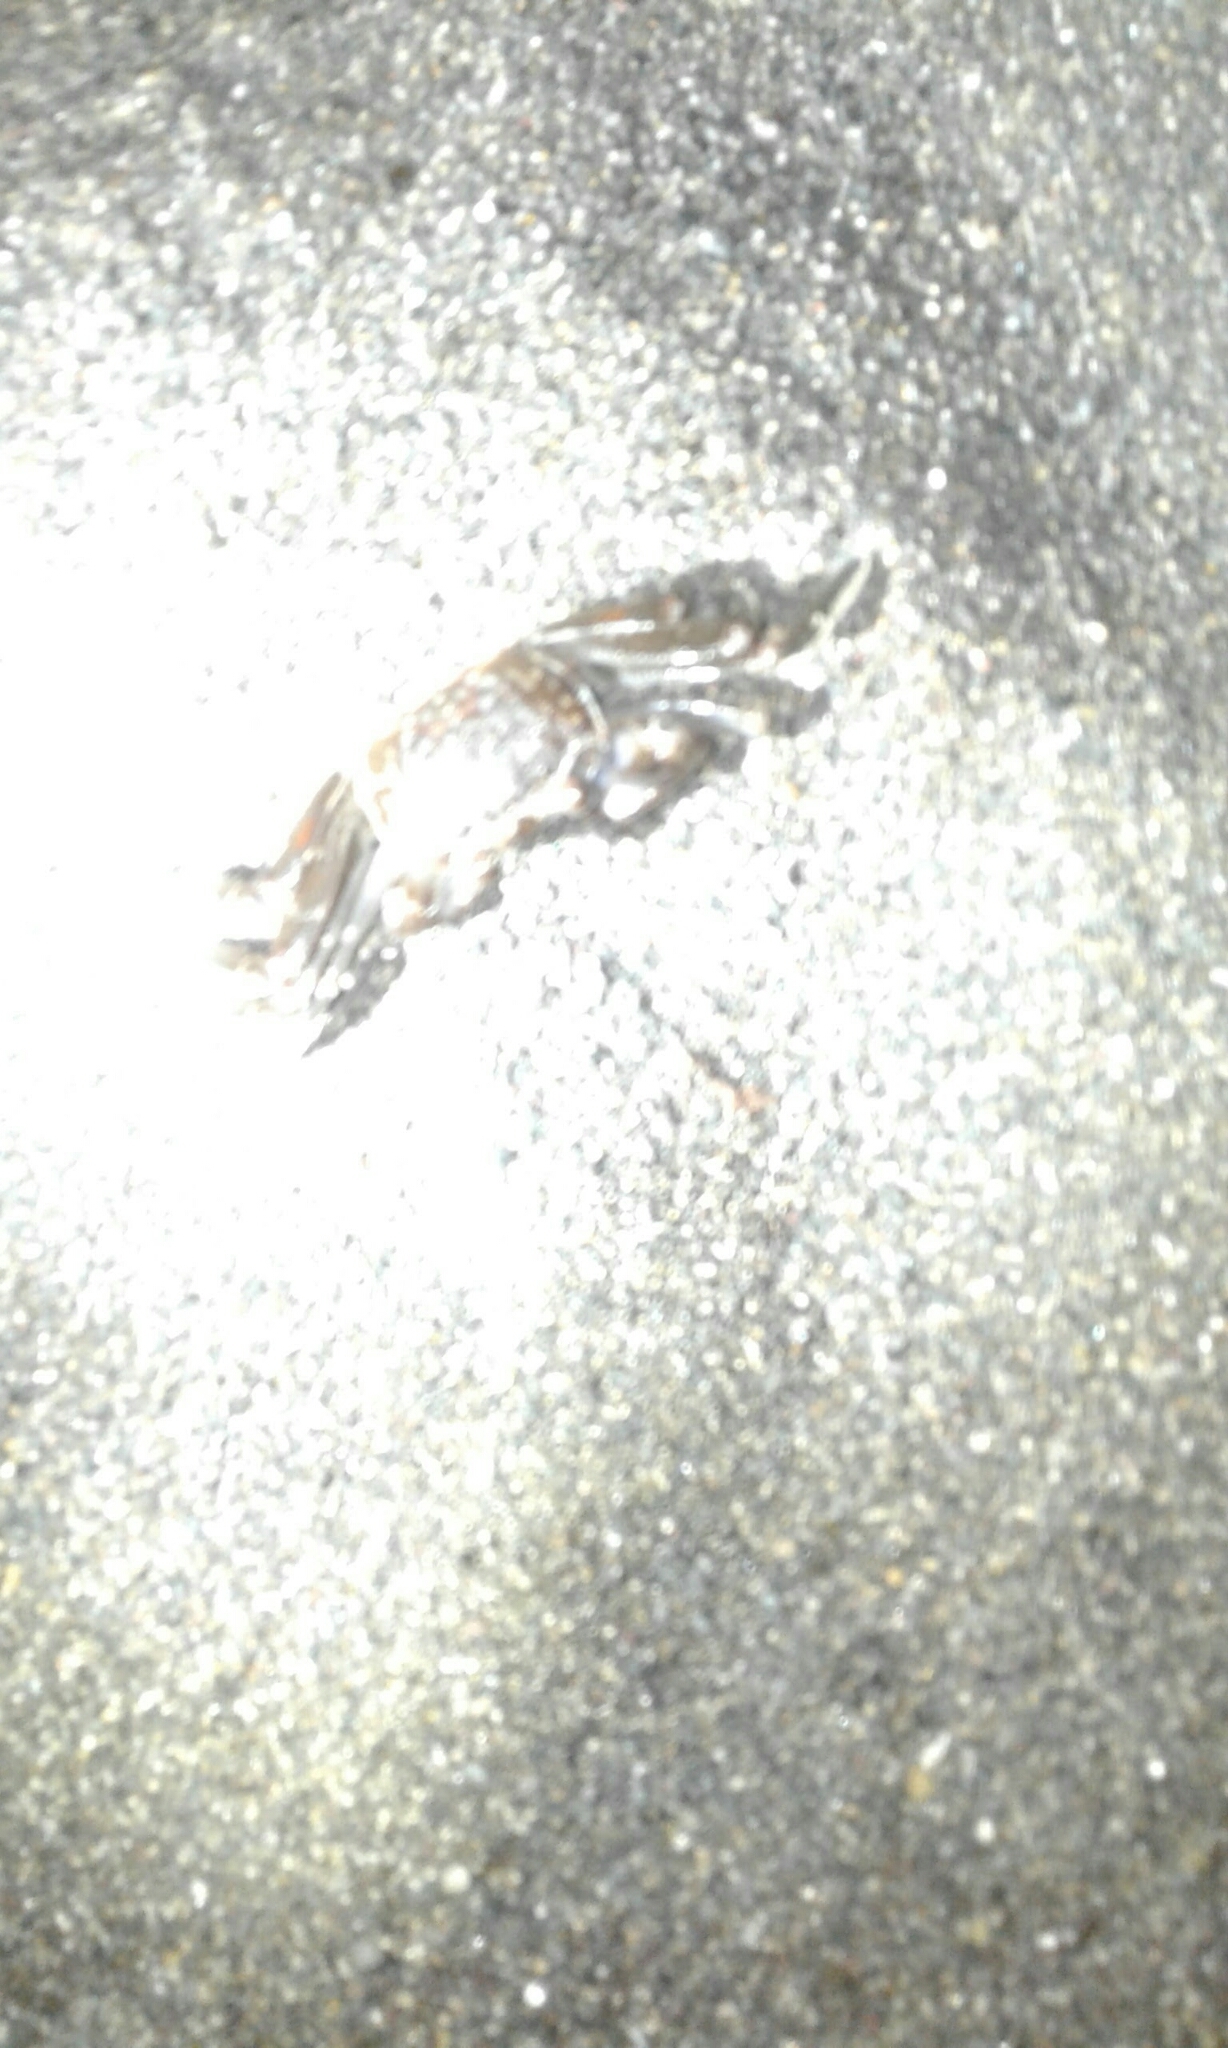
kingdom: Animalia
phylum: Arthropoda
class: Malacostraca
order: Decapoda
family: Ocypodidae
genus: Ocypode
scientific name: Ocypode occidentalis
